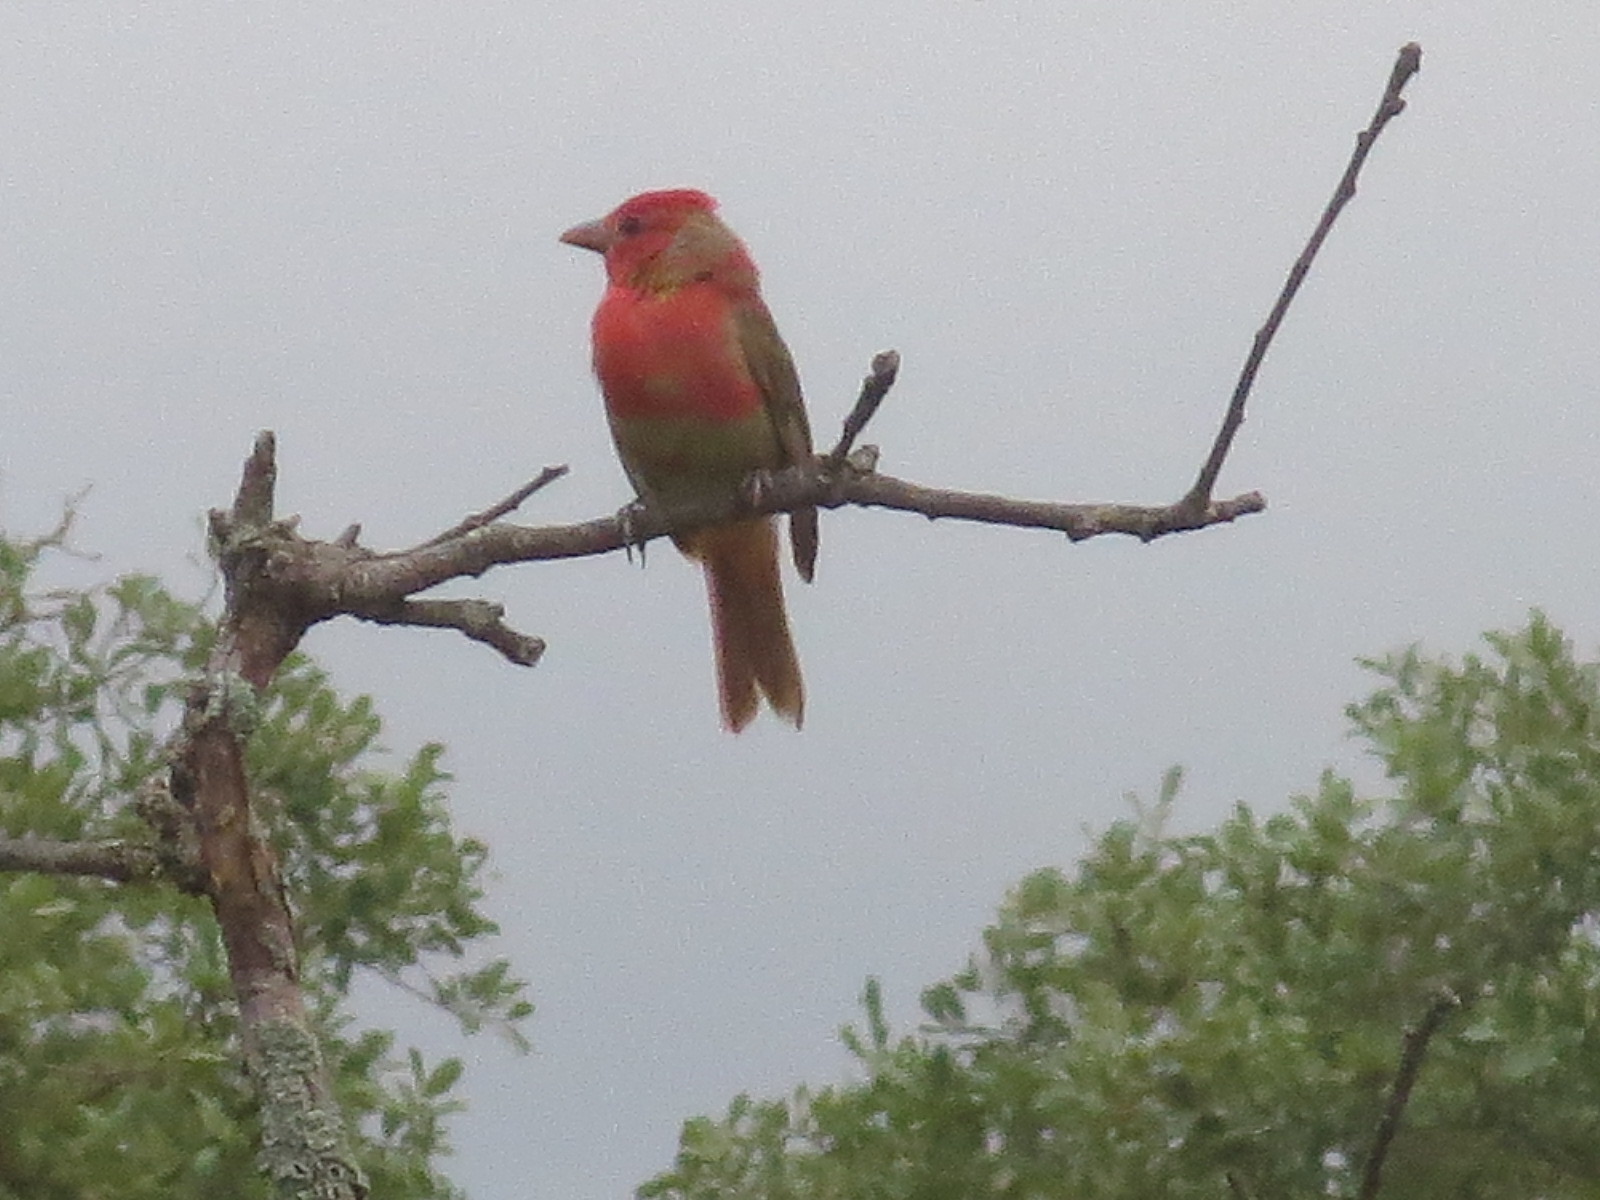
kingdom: Animalia
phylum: Chordata
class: Aves
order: Passeriformes
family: Cardinalidae
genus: Piranga
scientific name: Piranga rubra
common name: Summer tanager
